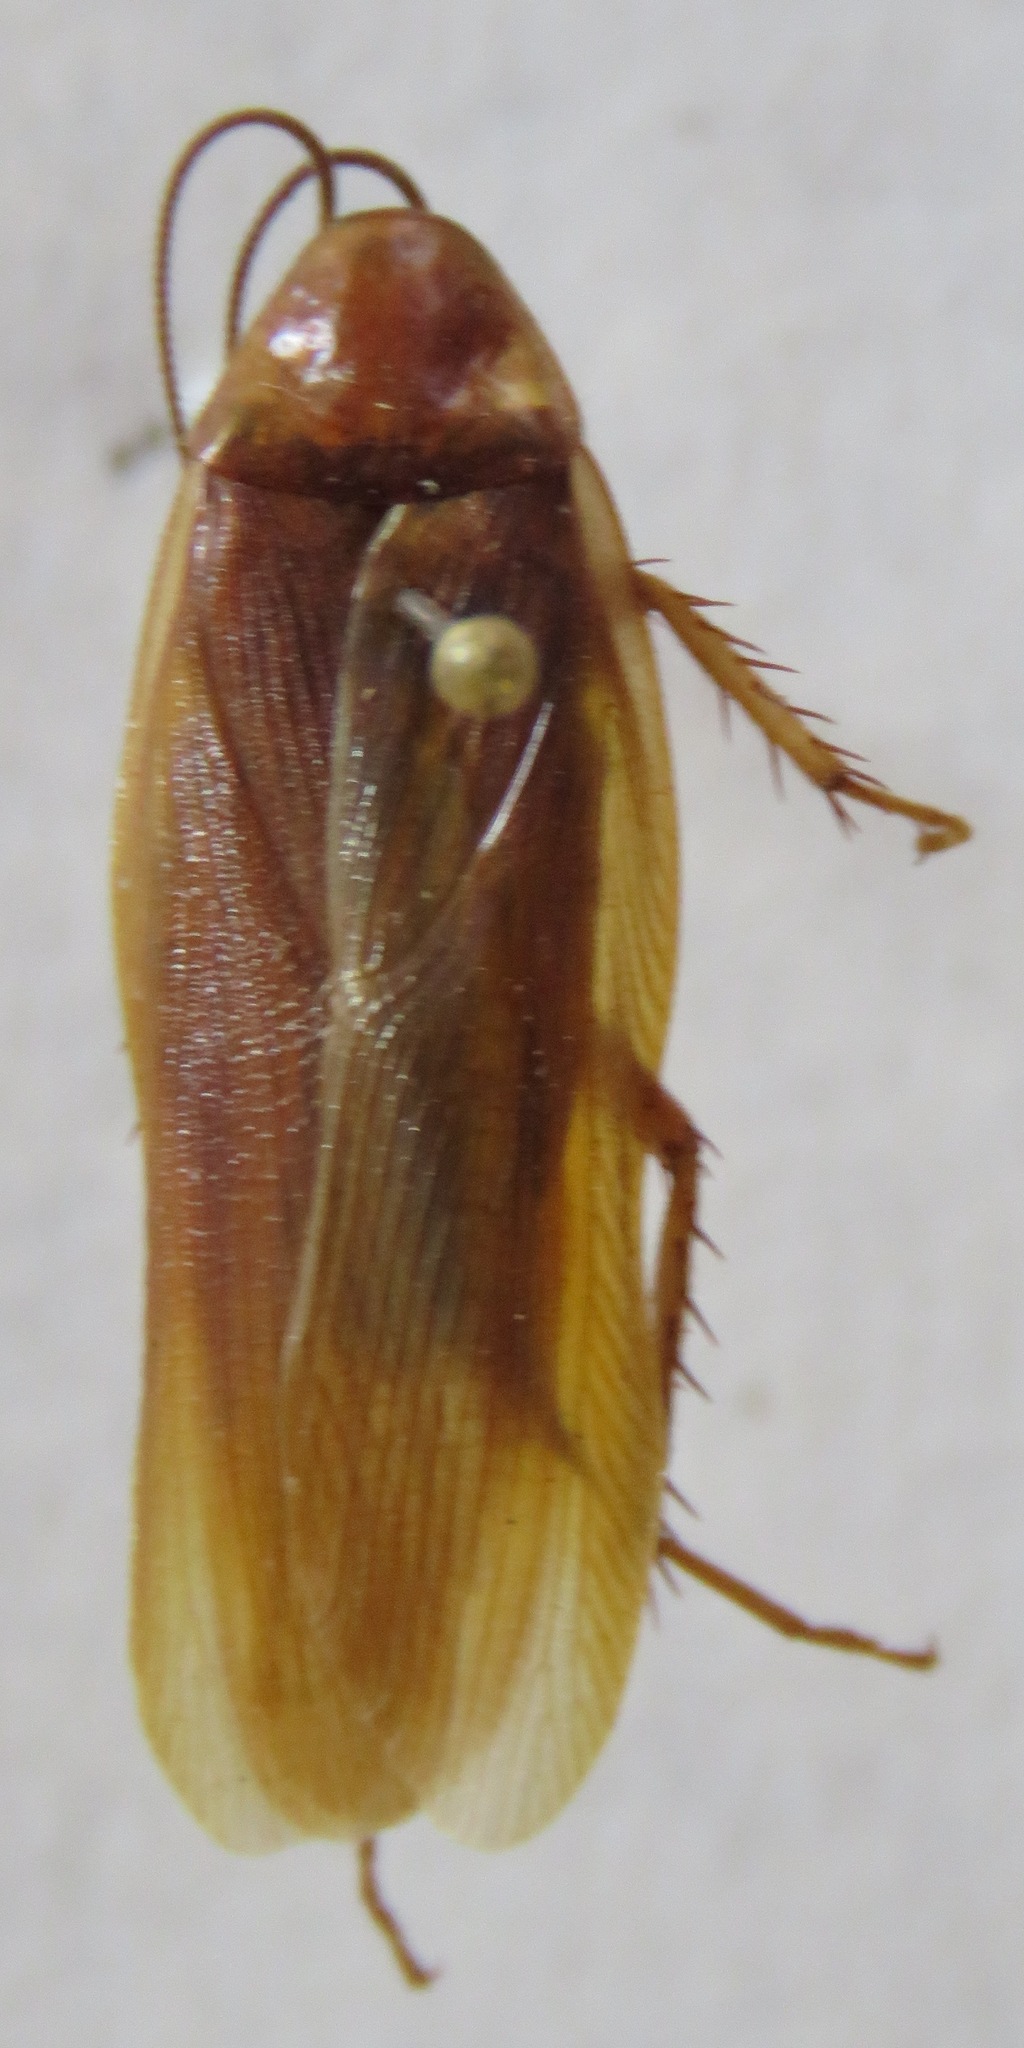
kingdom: Animalia
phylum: Arthropoda
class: Insecta
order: Blattodea
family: Ectobiidae
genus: Ischnoptera
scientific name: Ischnoptera rufa
